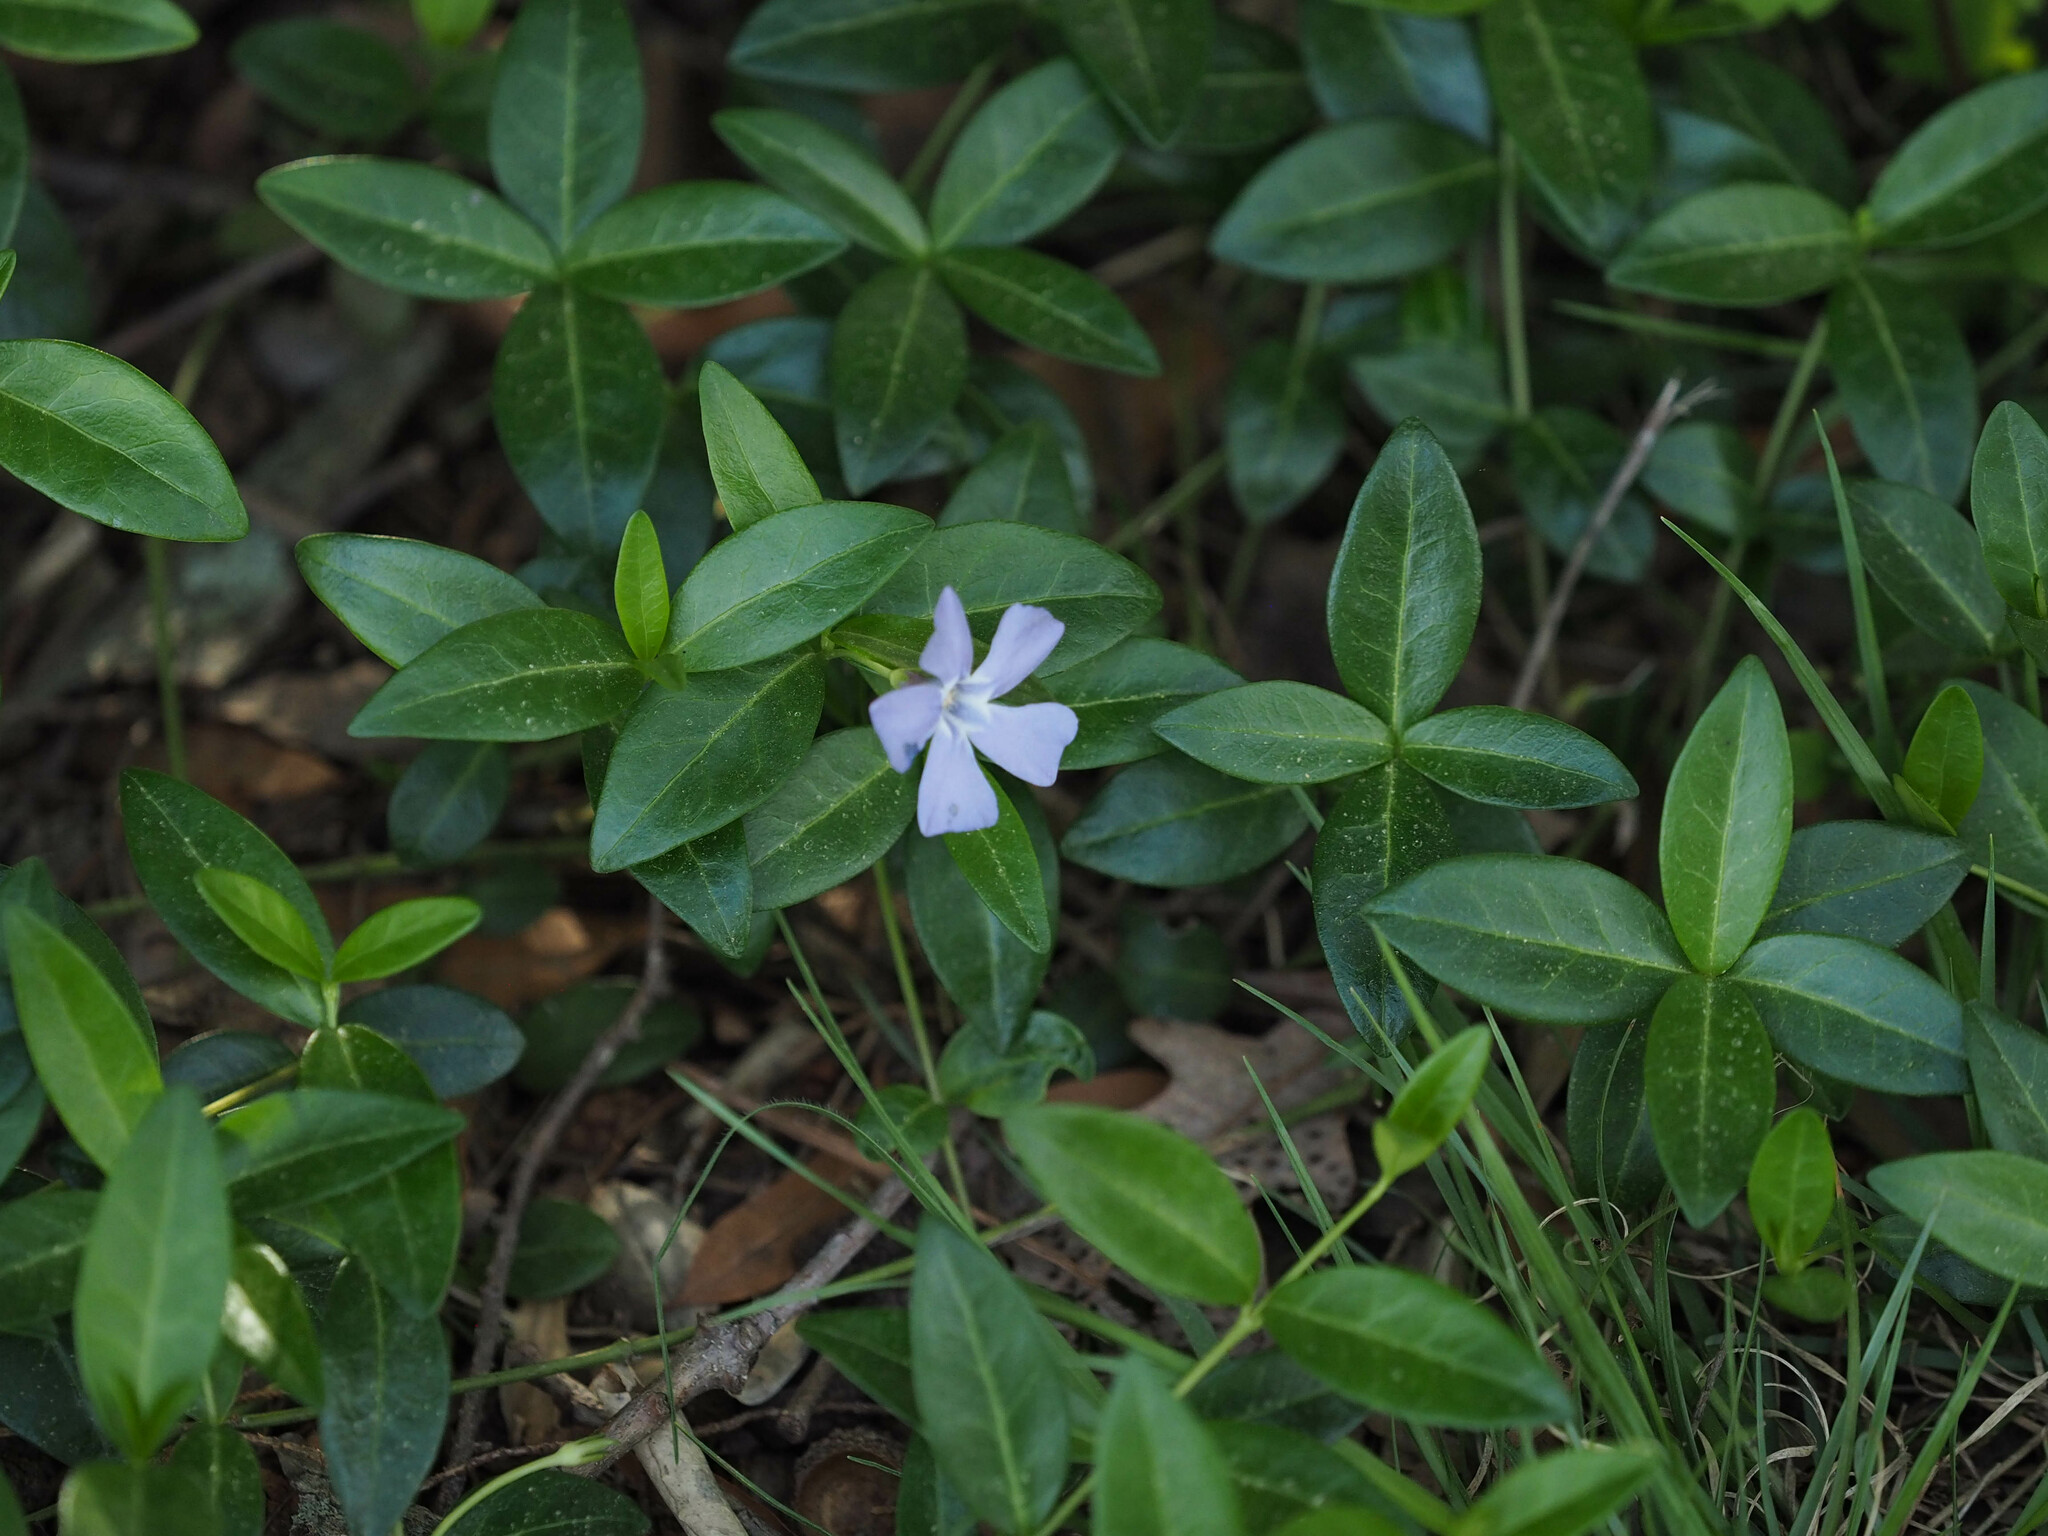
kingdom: Plantae
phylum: Tracheophyta
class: Magnoliopsida
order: Gentianales
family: Apocynaceae
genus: Vinca
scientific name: Vinca minor
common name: Lesser periwinkle
